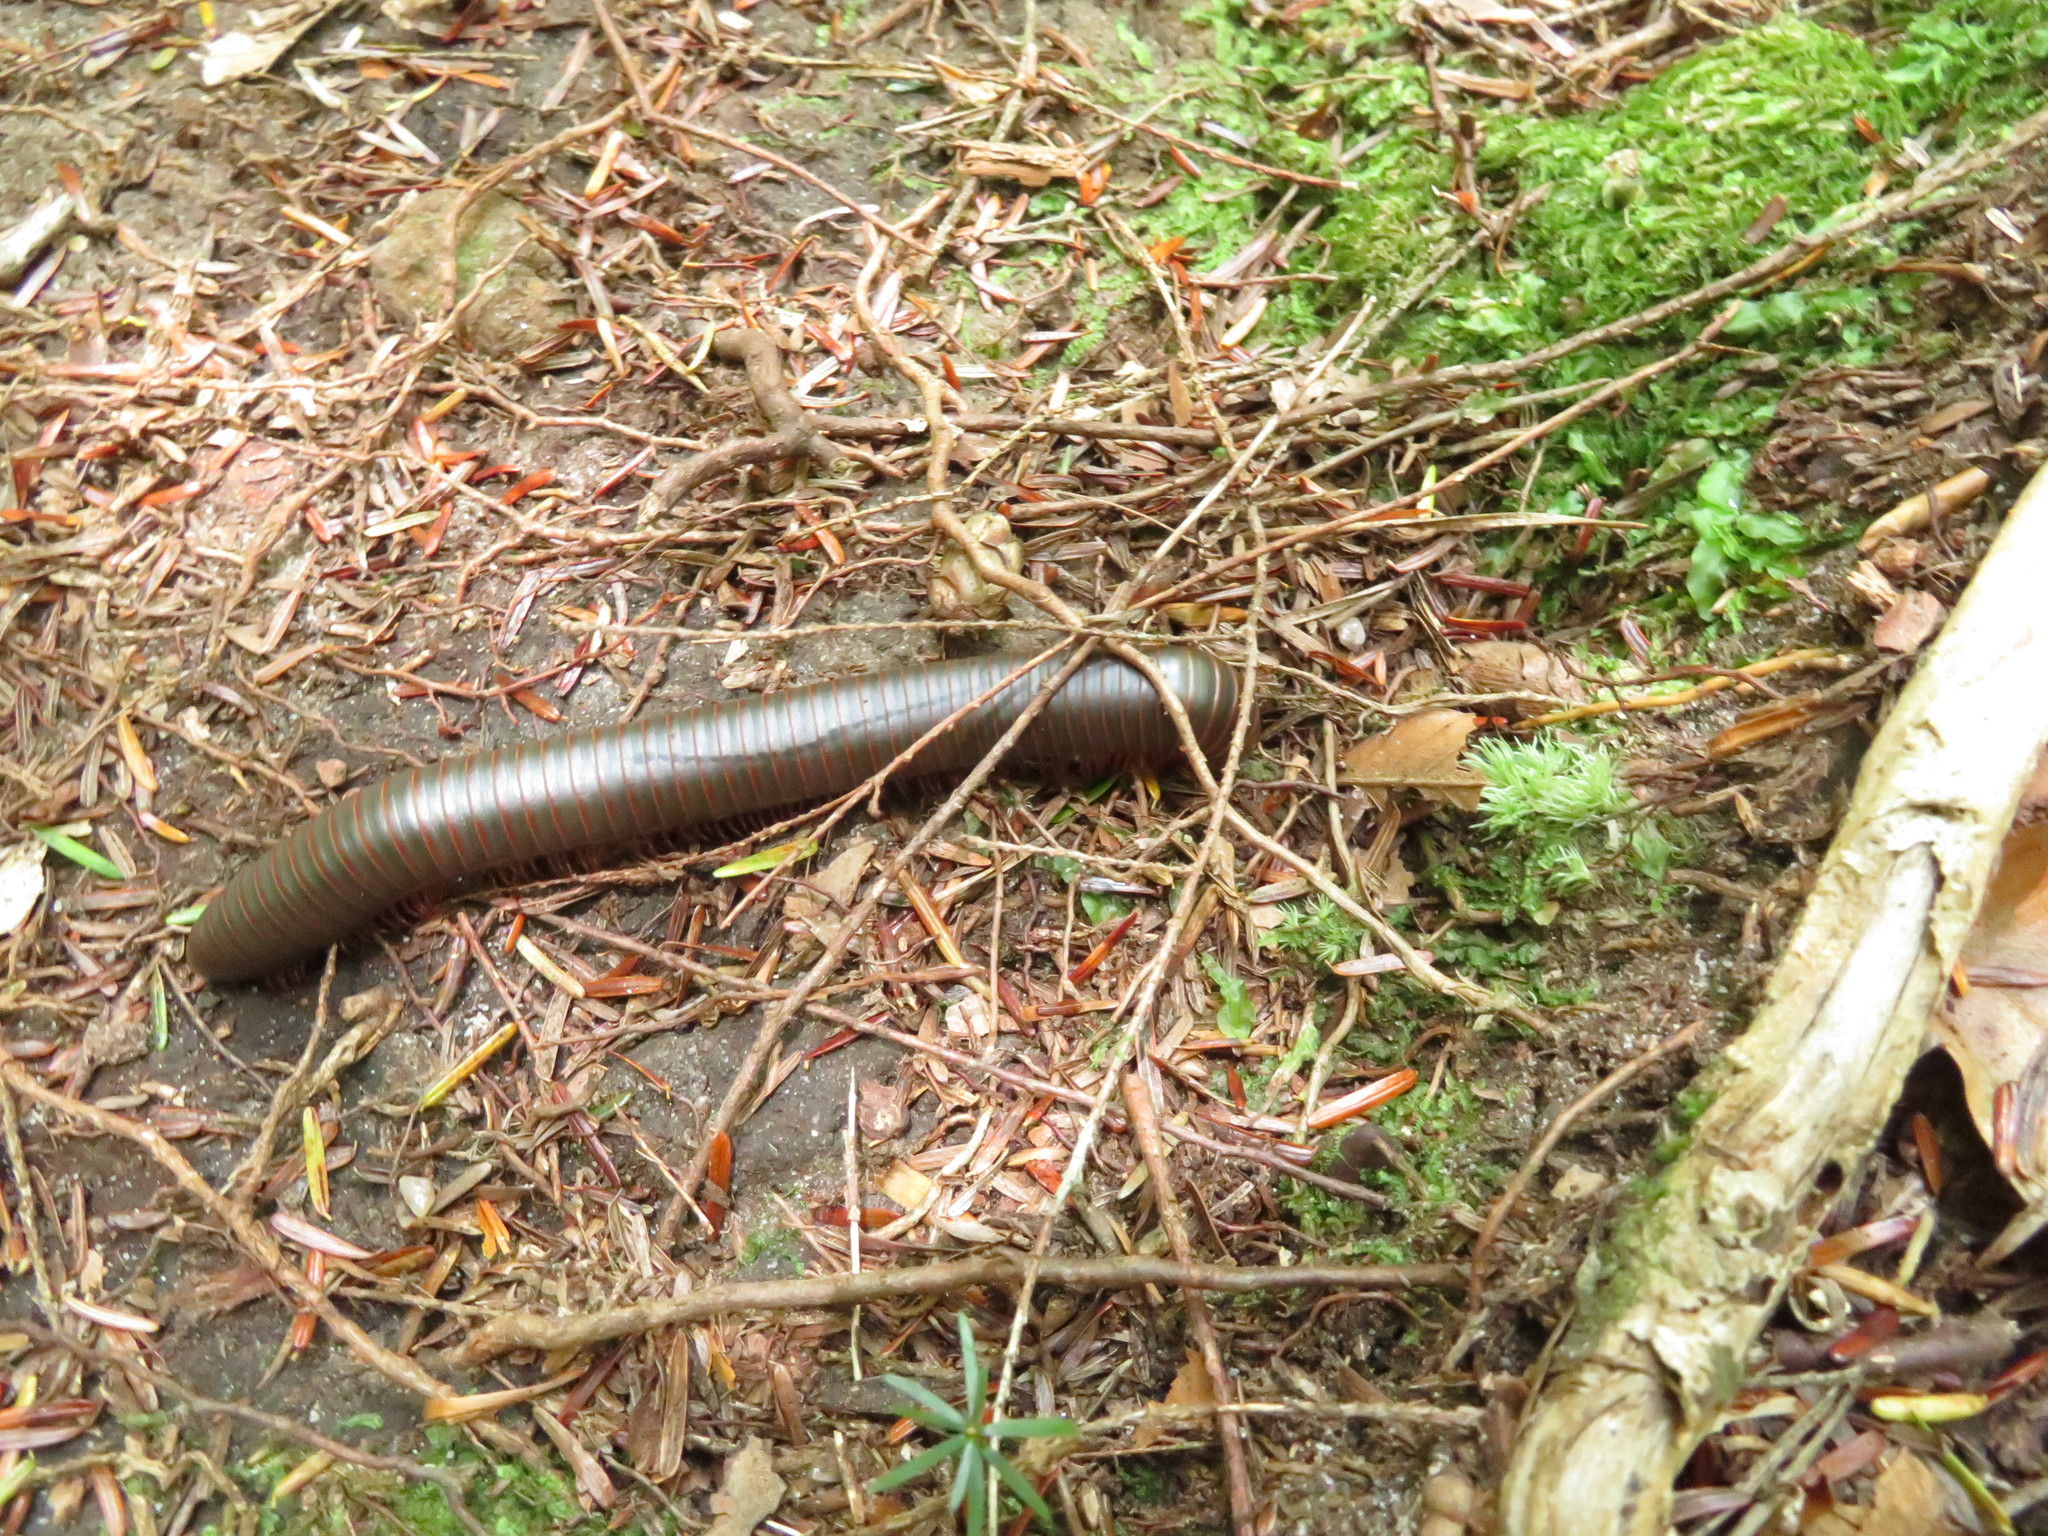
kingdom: Animalia
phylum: Arthropoda
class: Diplopoda
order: Spirobolida
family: Spirobolidae
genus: Narceus
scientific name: Narceus
